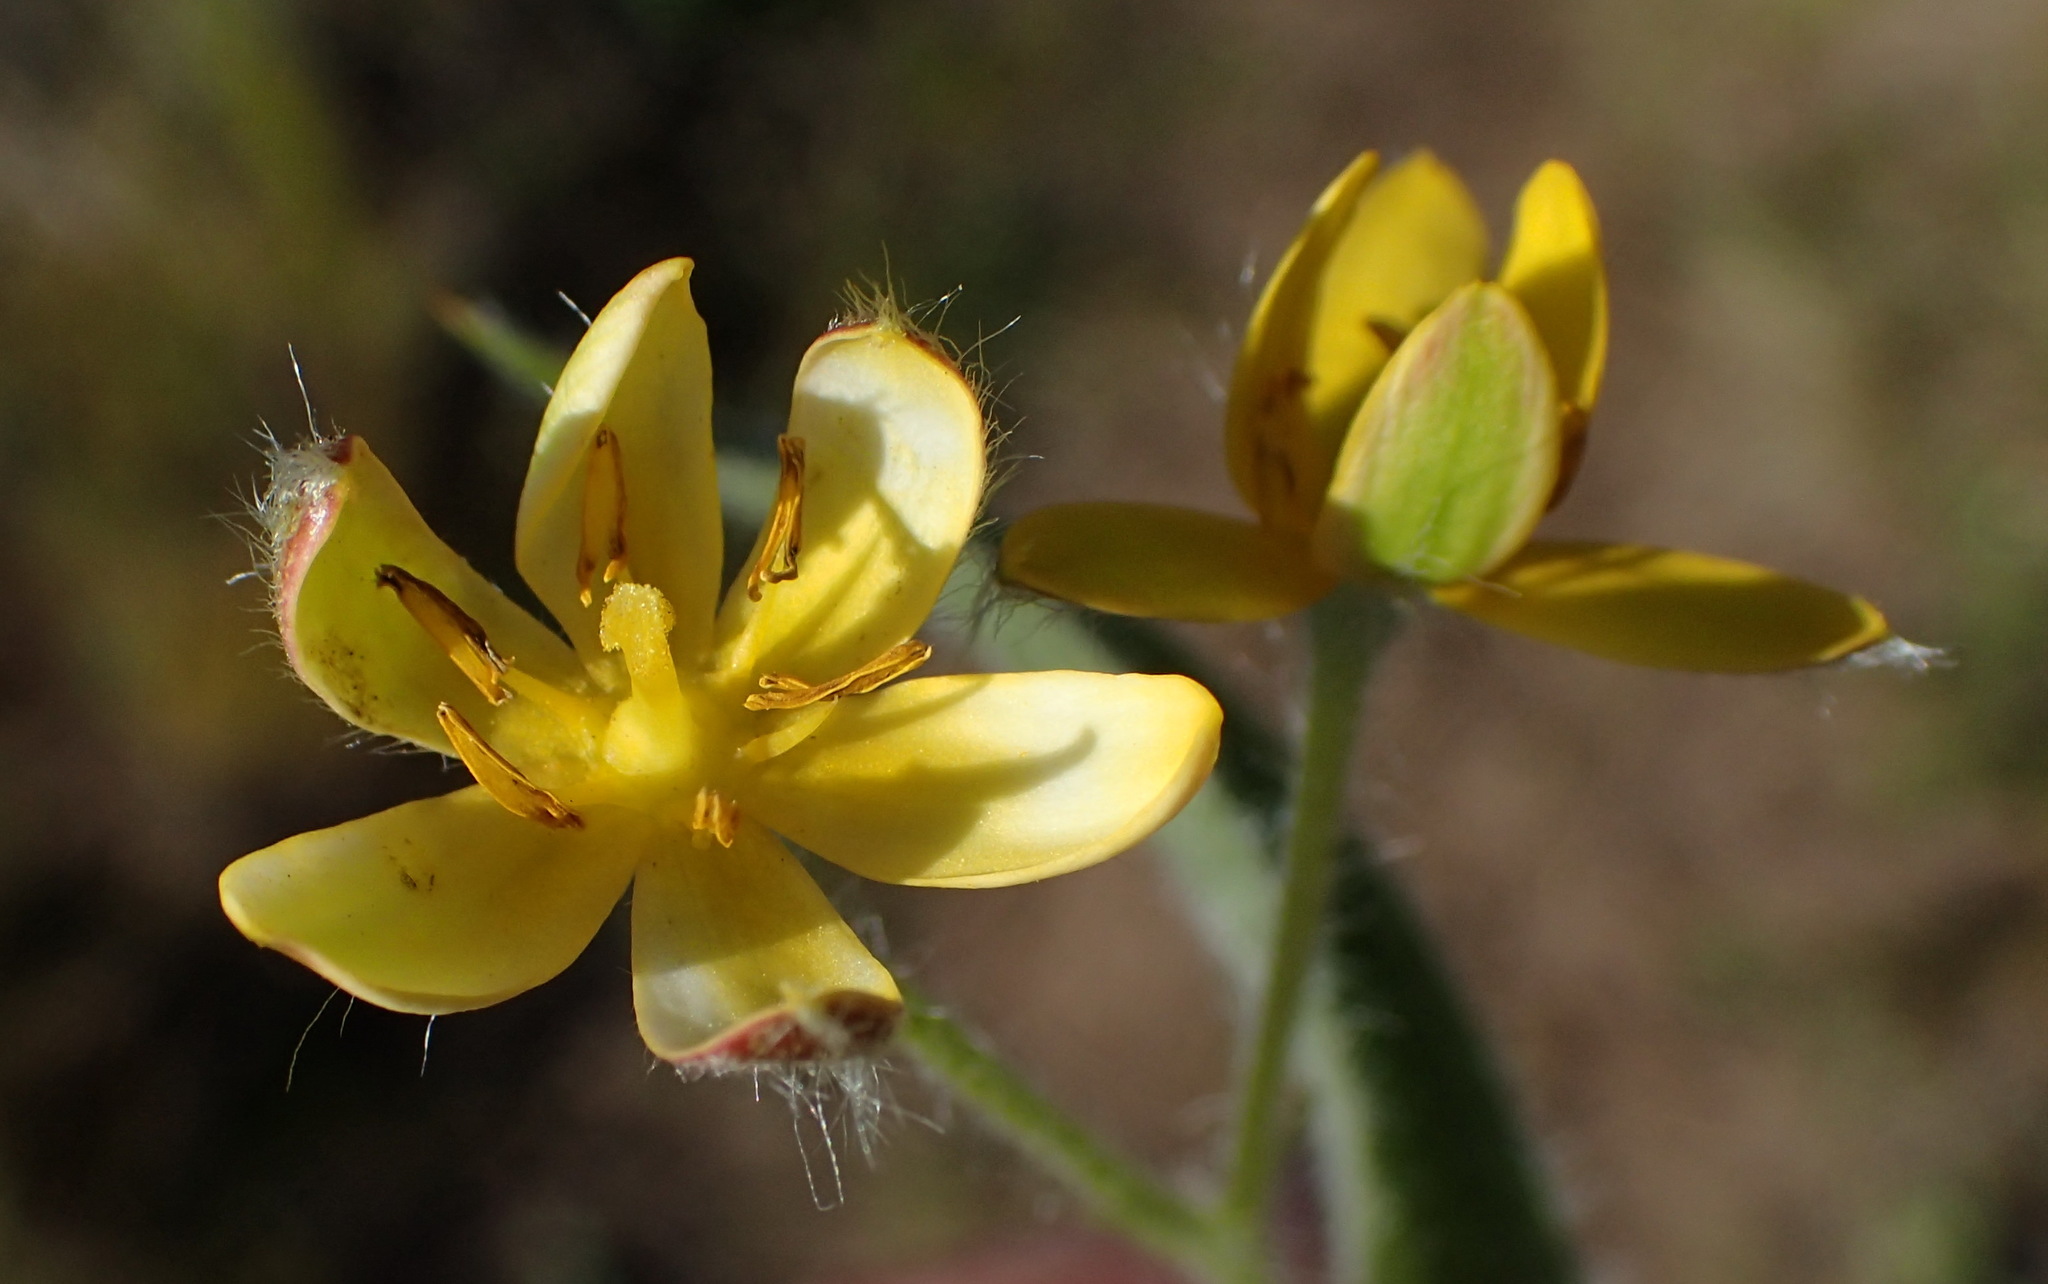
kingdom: Plantae
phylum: Tracheophyta
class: Liliopsida
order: Asparagales
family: Hypoxidaceae
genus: Hypoxis
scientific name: Hypoxis villosa
